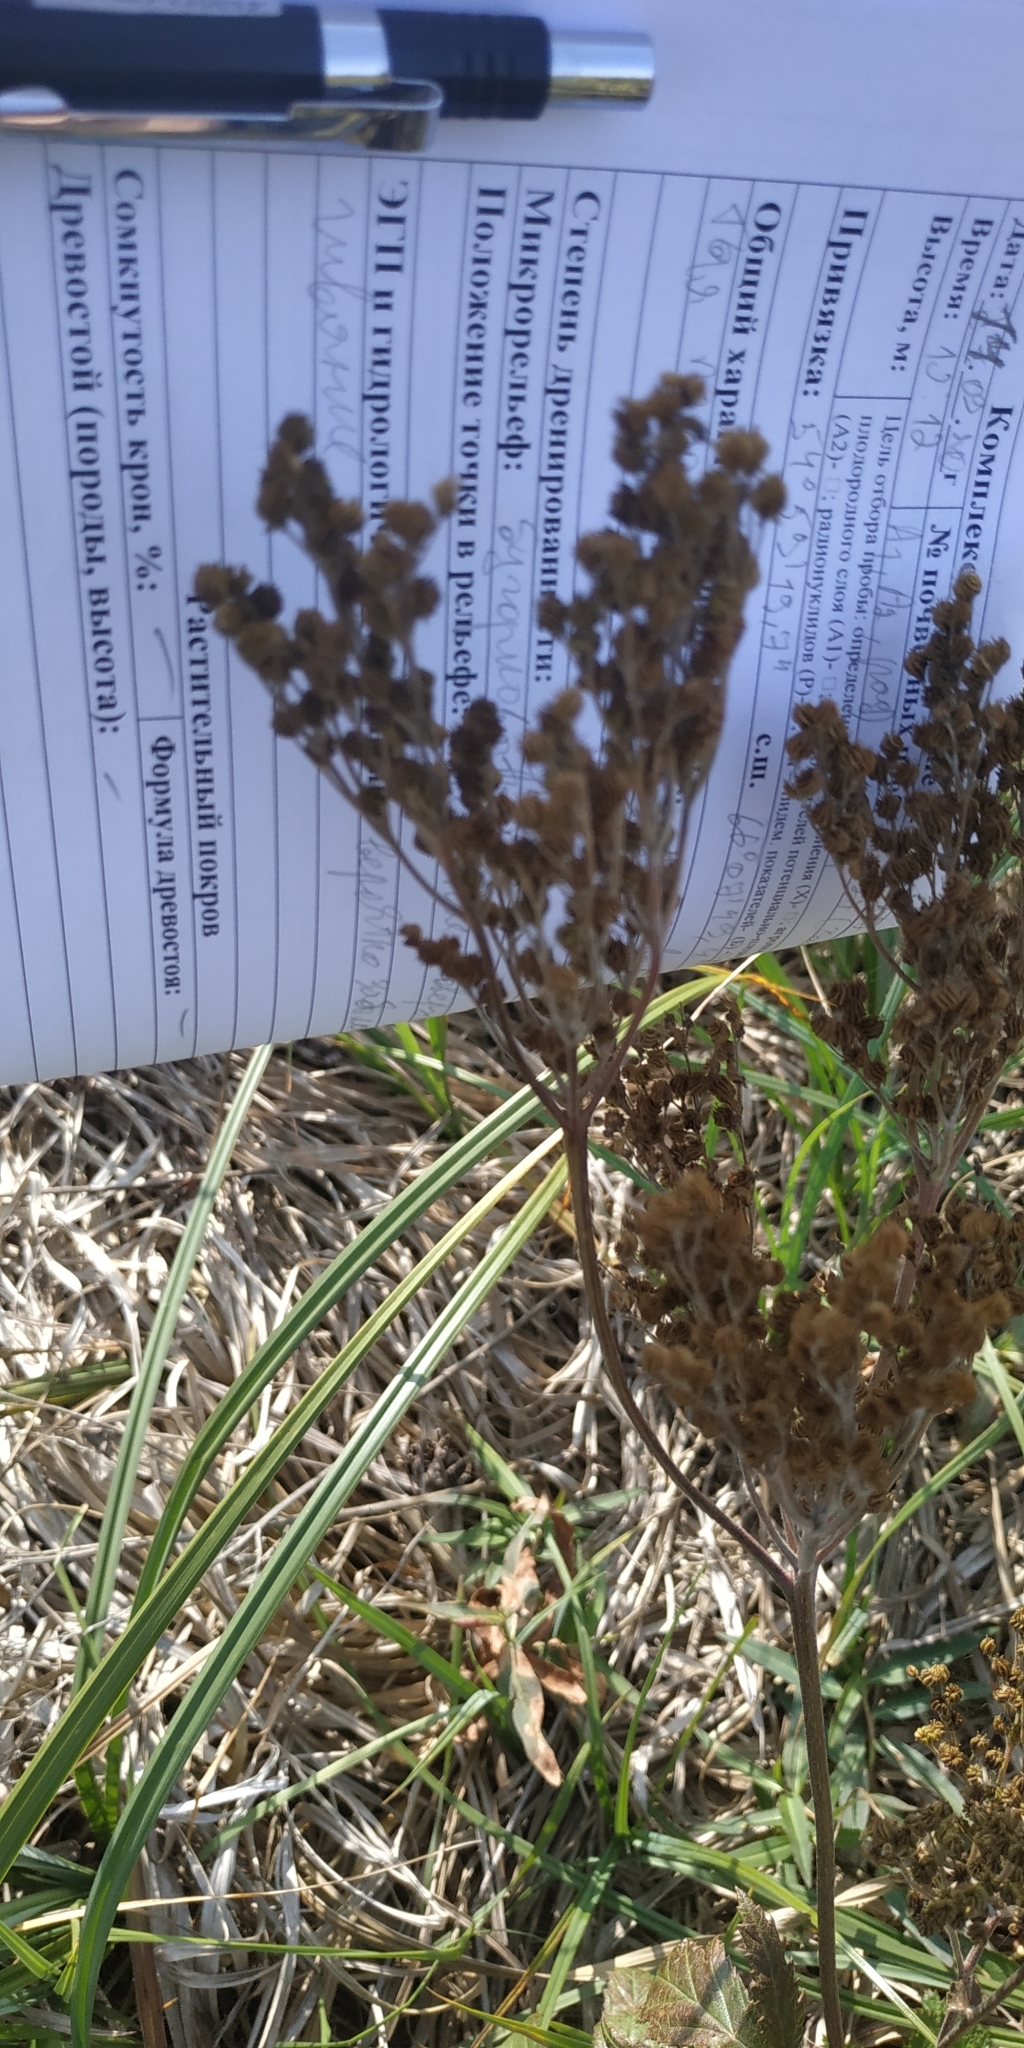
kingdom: Plantae
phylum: Tracheophyta
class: Magnoliopsida
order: Rosales
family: Rosaceae
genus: Filipendula
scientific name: Filipendula ulmaria
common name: Meadowsweet
